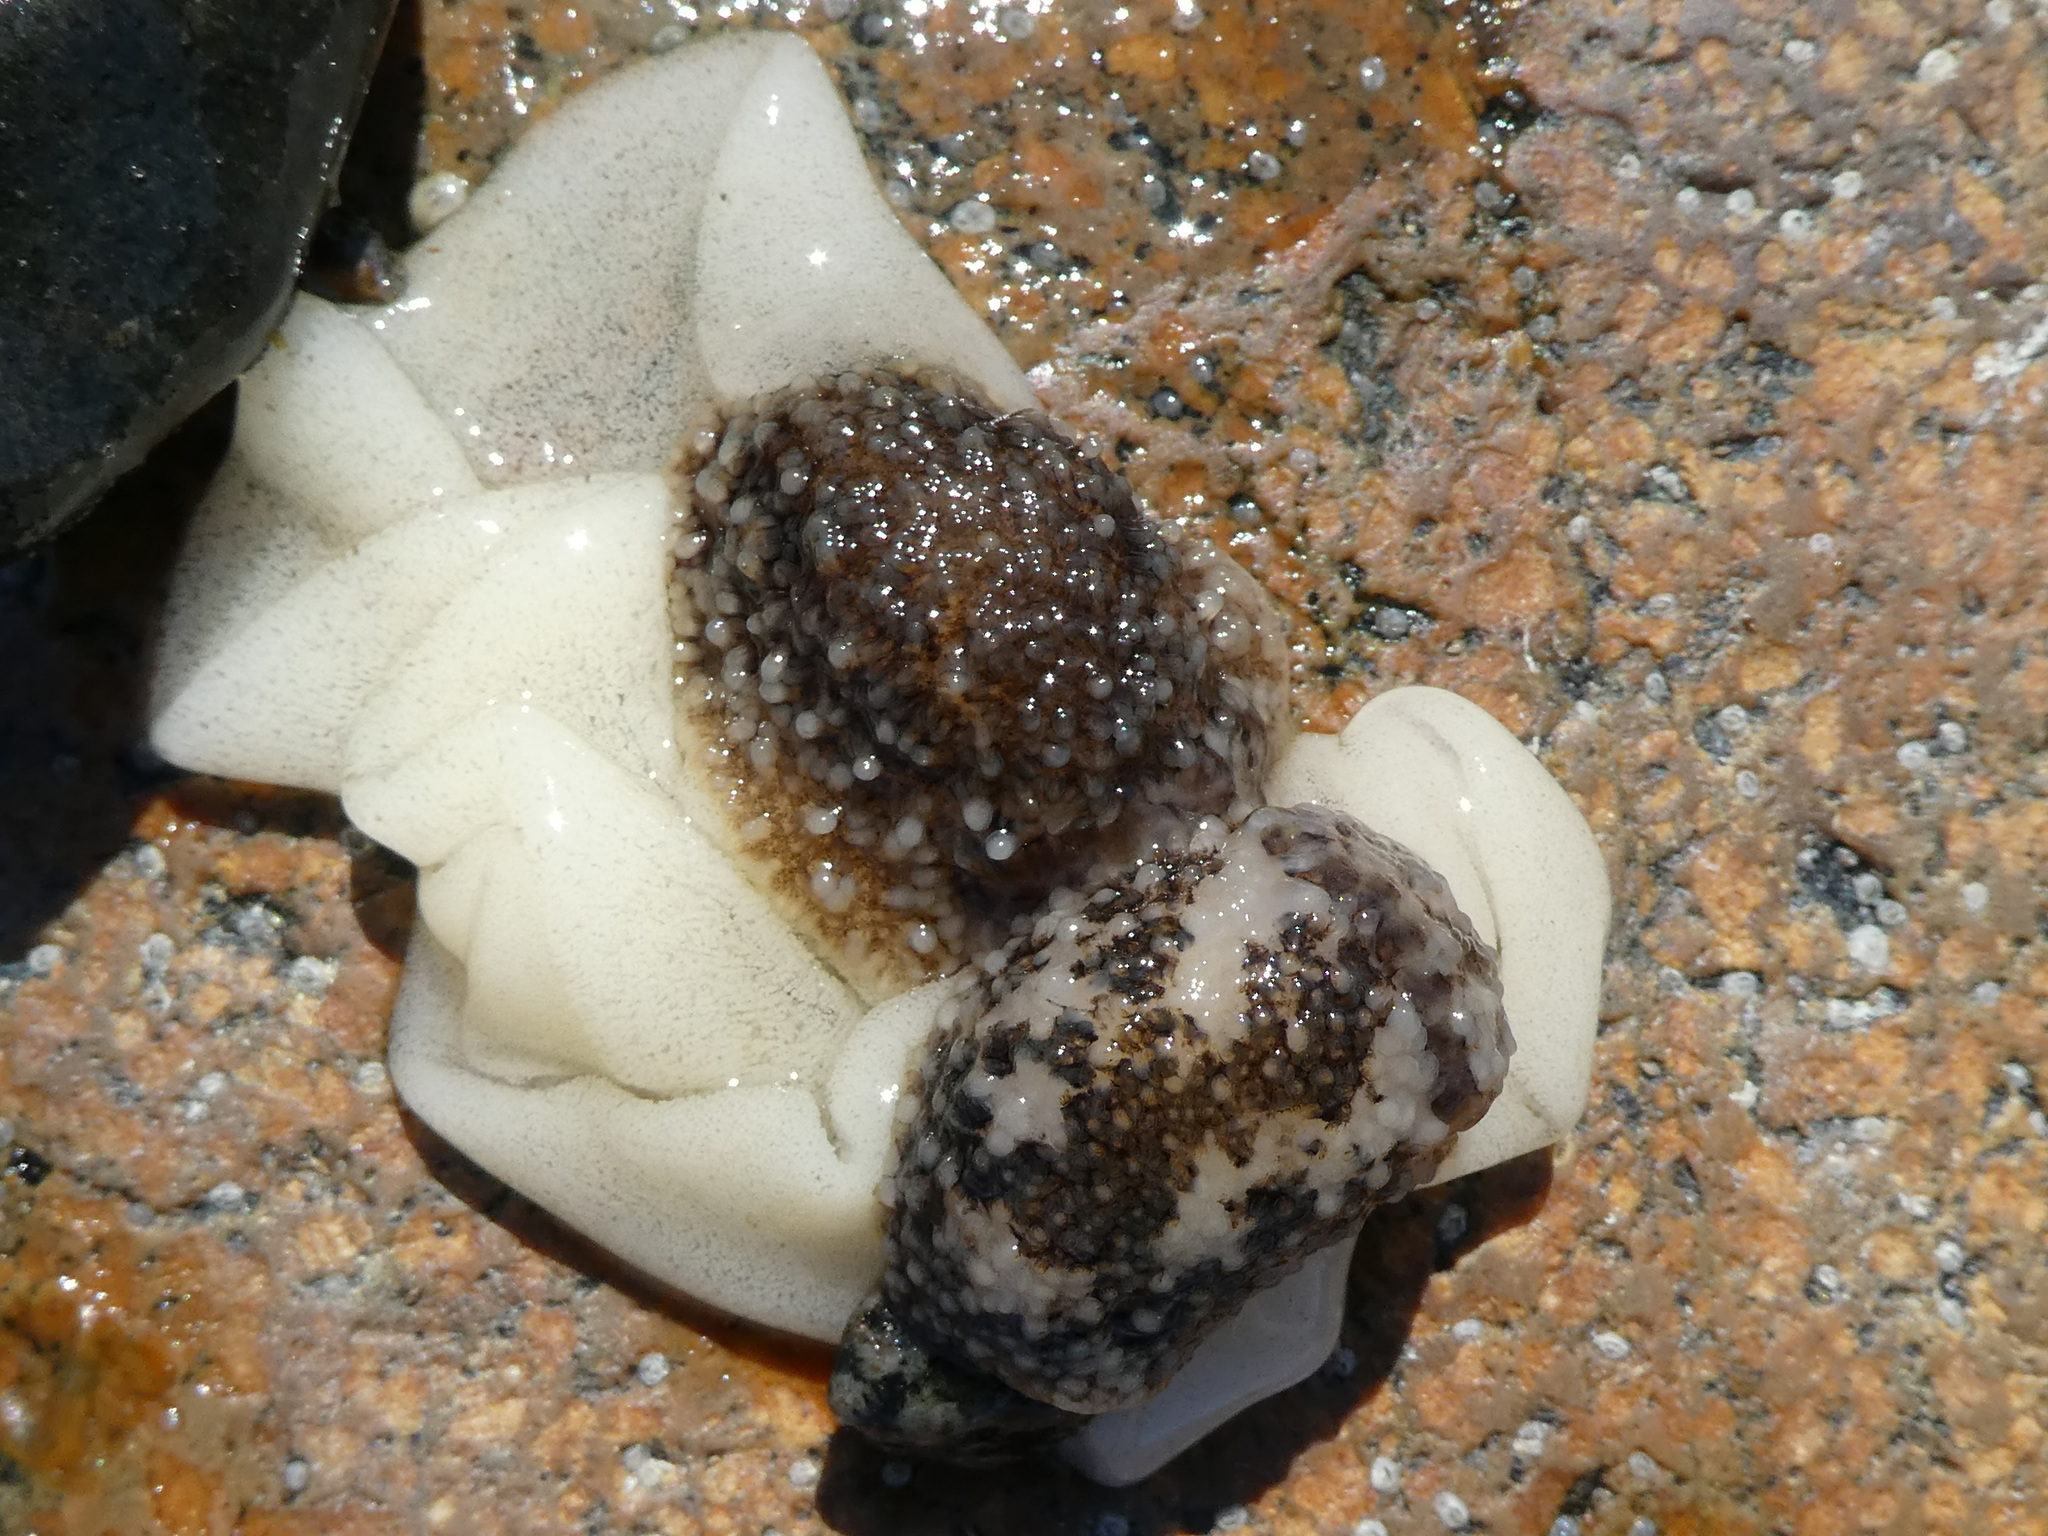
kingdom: Animalia
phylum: Mollusca
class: Gastropoda
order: Nudibranchia
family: Onchidorididae
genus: Onchidoris
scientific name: Onchidoris bilamellata
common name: Barnacle-eating onchidoris
